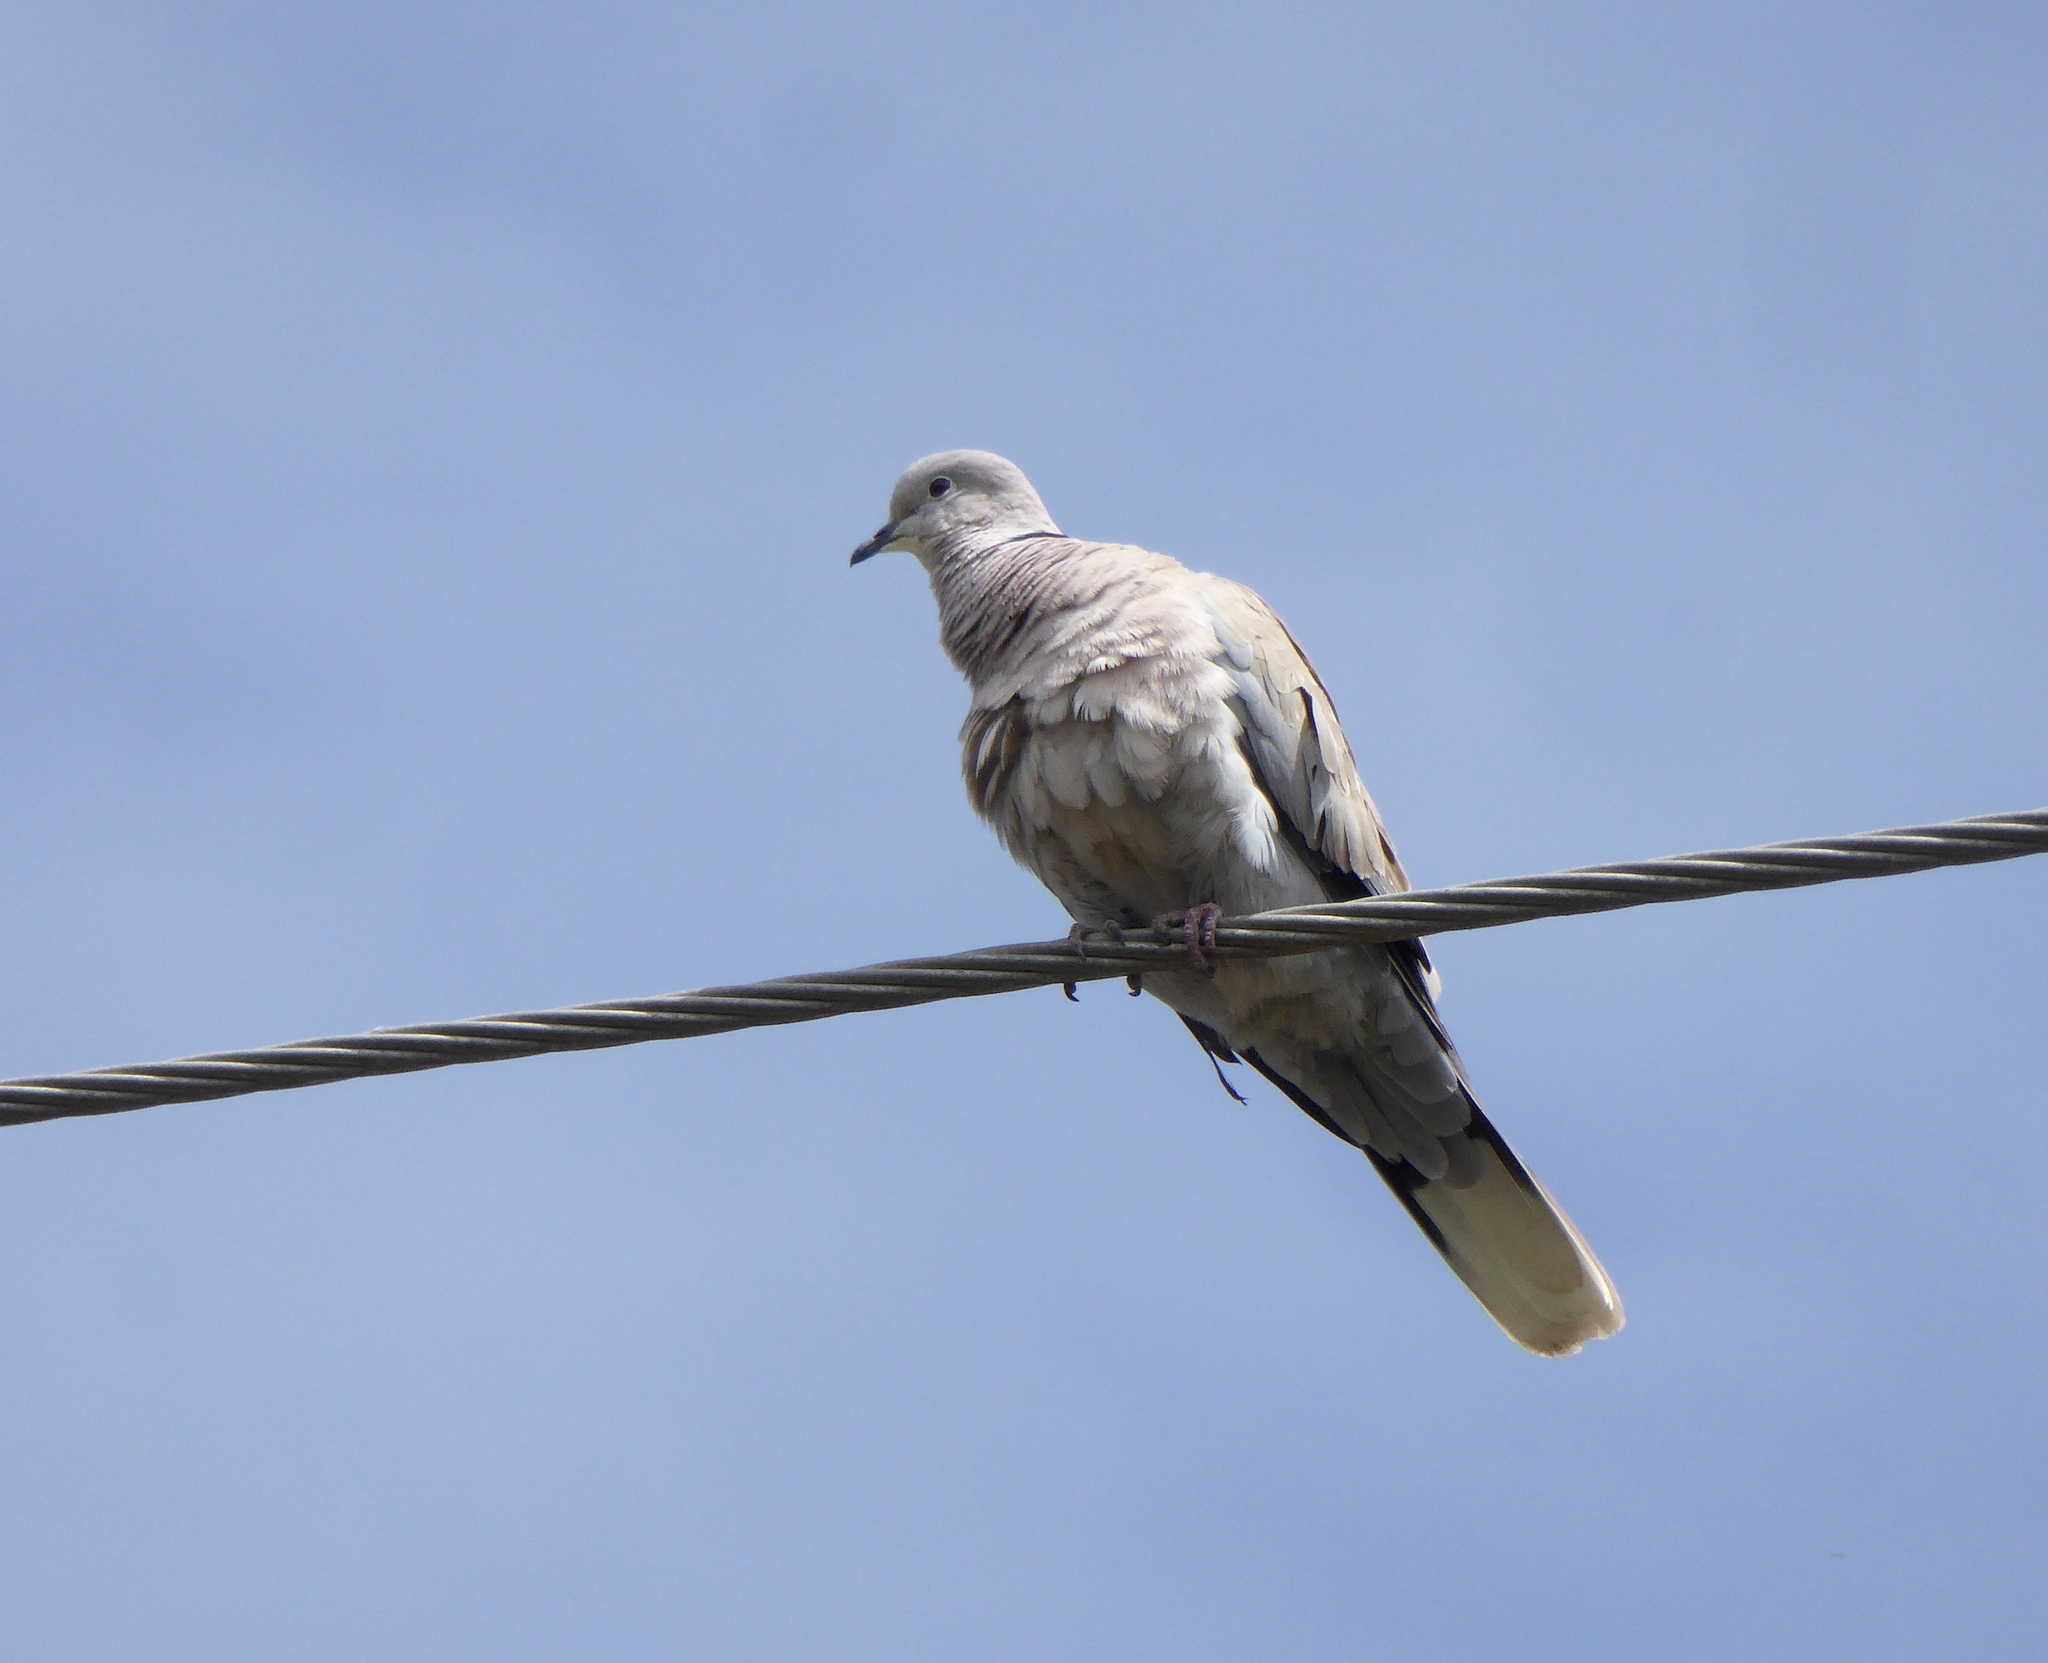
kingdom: Animalia
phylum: Chordata
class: Aves
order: Columbiformes
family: Columbidae
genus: Streptopelia
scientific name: Streptopelia decaocto
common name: Eurasian collared dove
